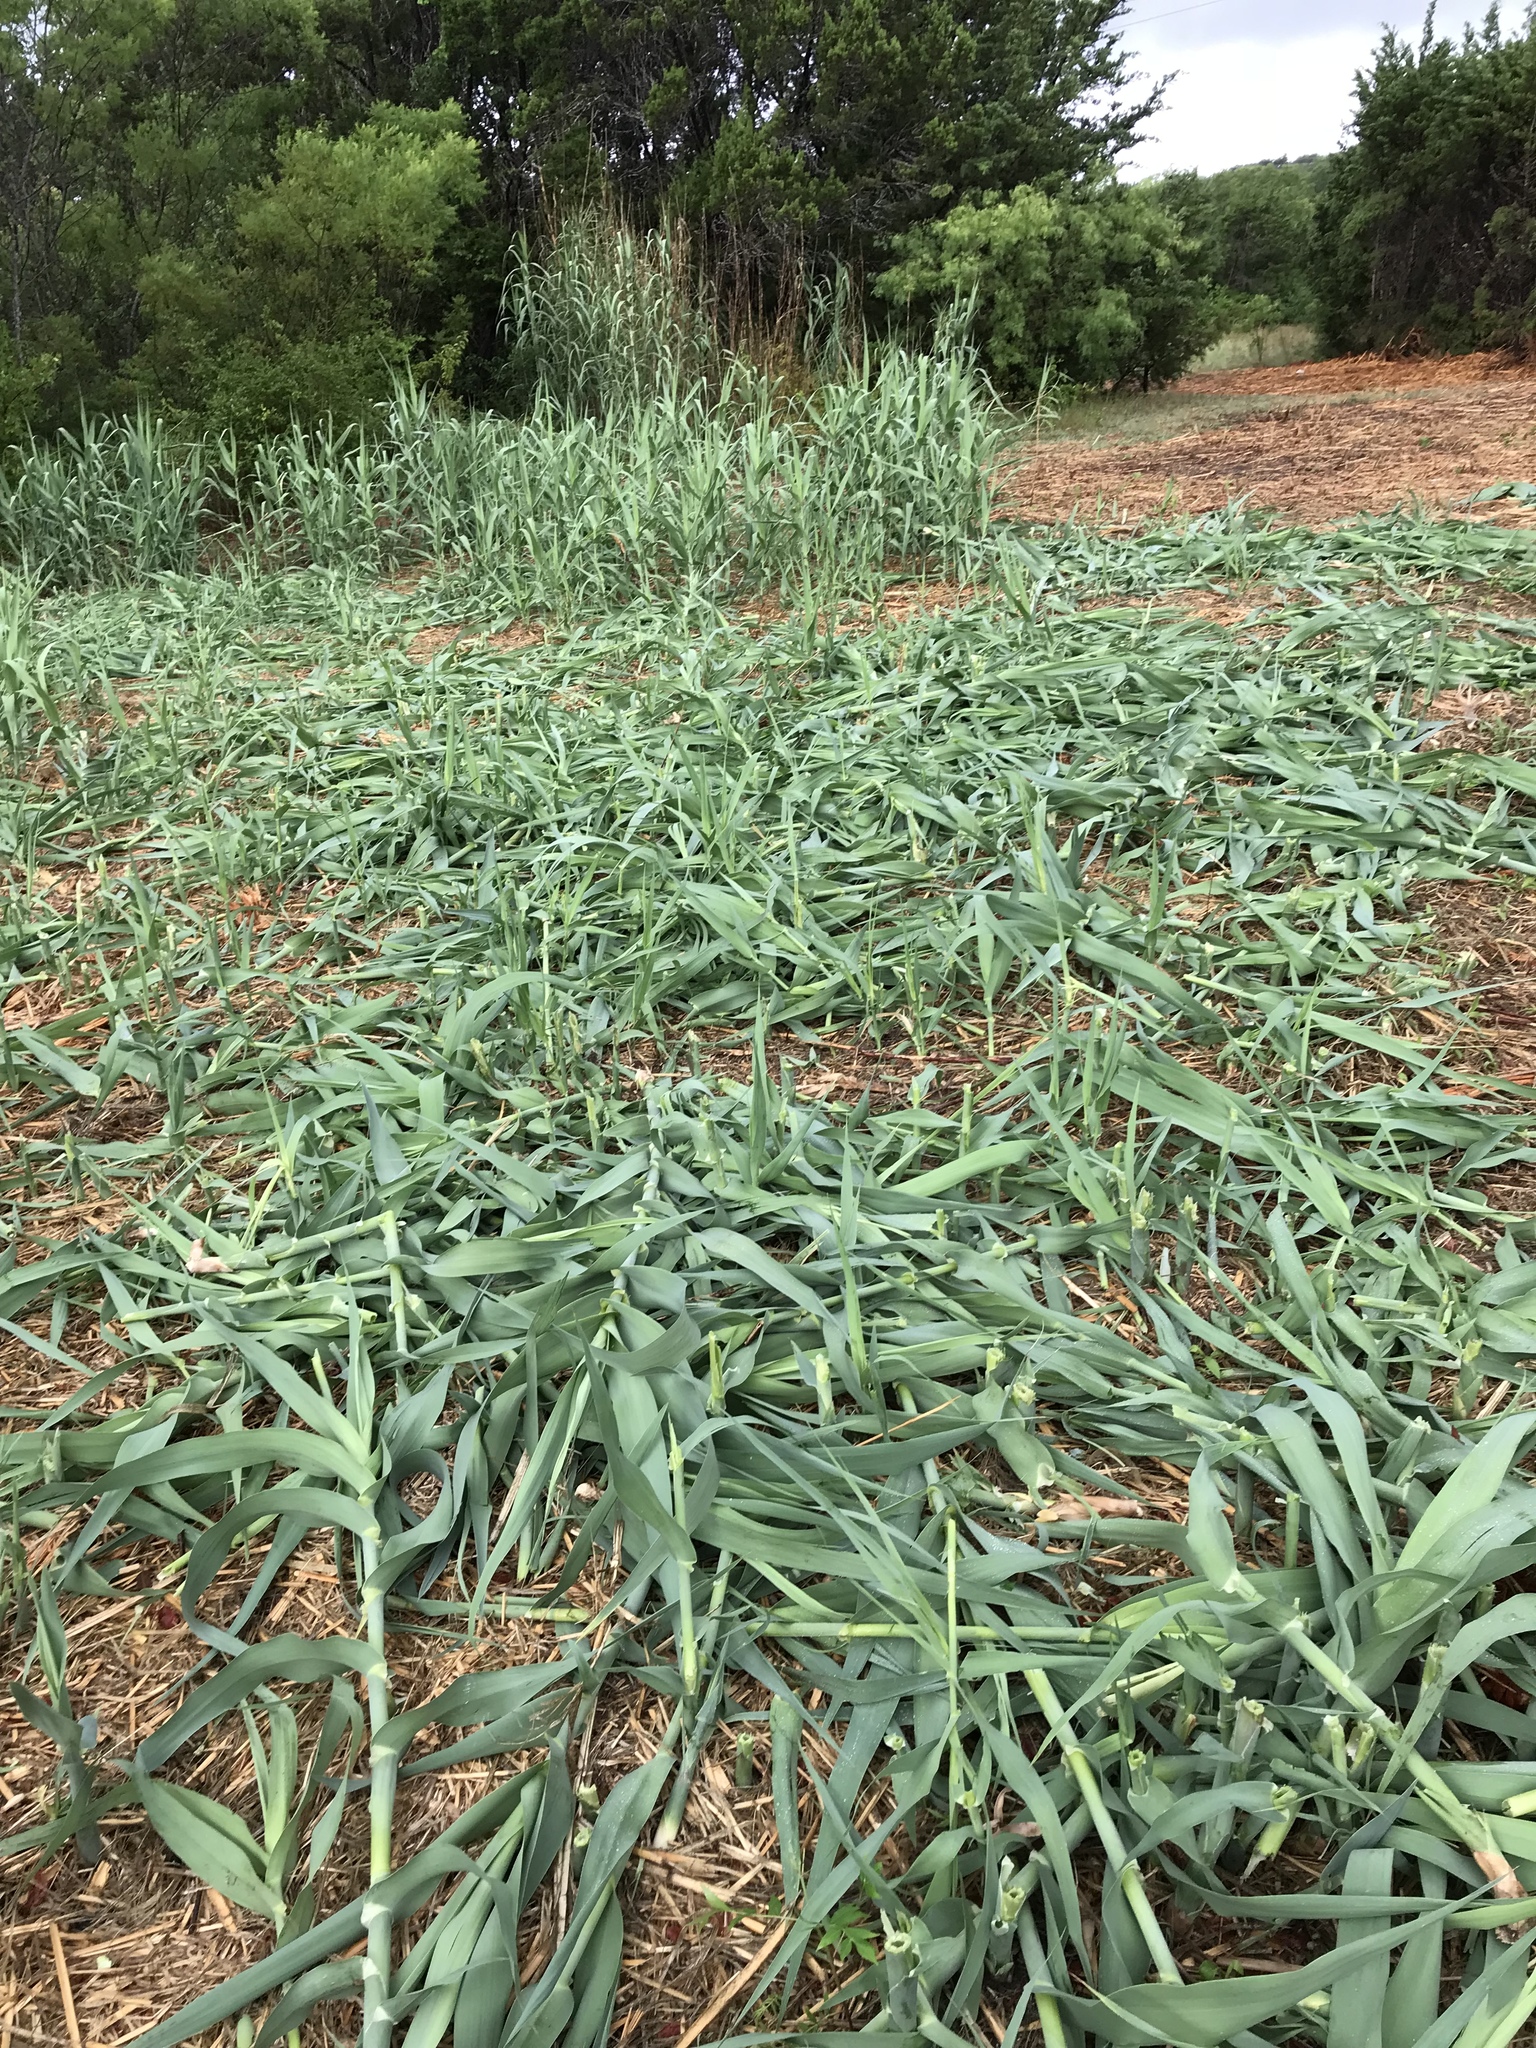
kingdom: Plantae
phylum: Tracheophyta
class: Liliopsida
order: Poales
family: Poaceae
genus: Arundo
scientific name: Arundo donax
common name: Giant reed
